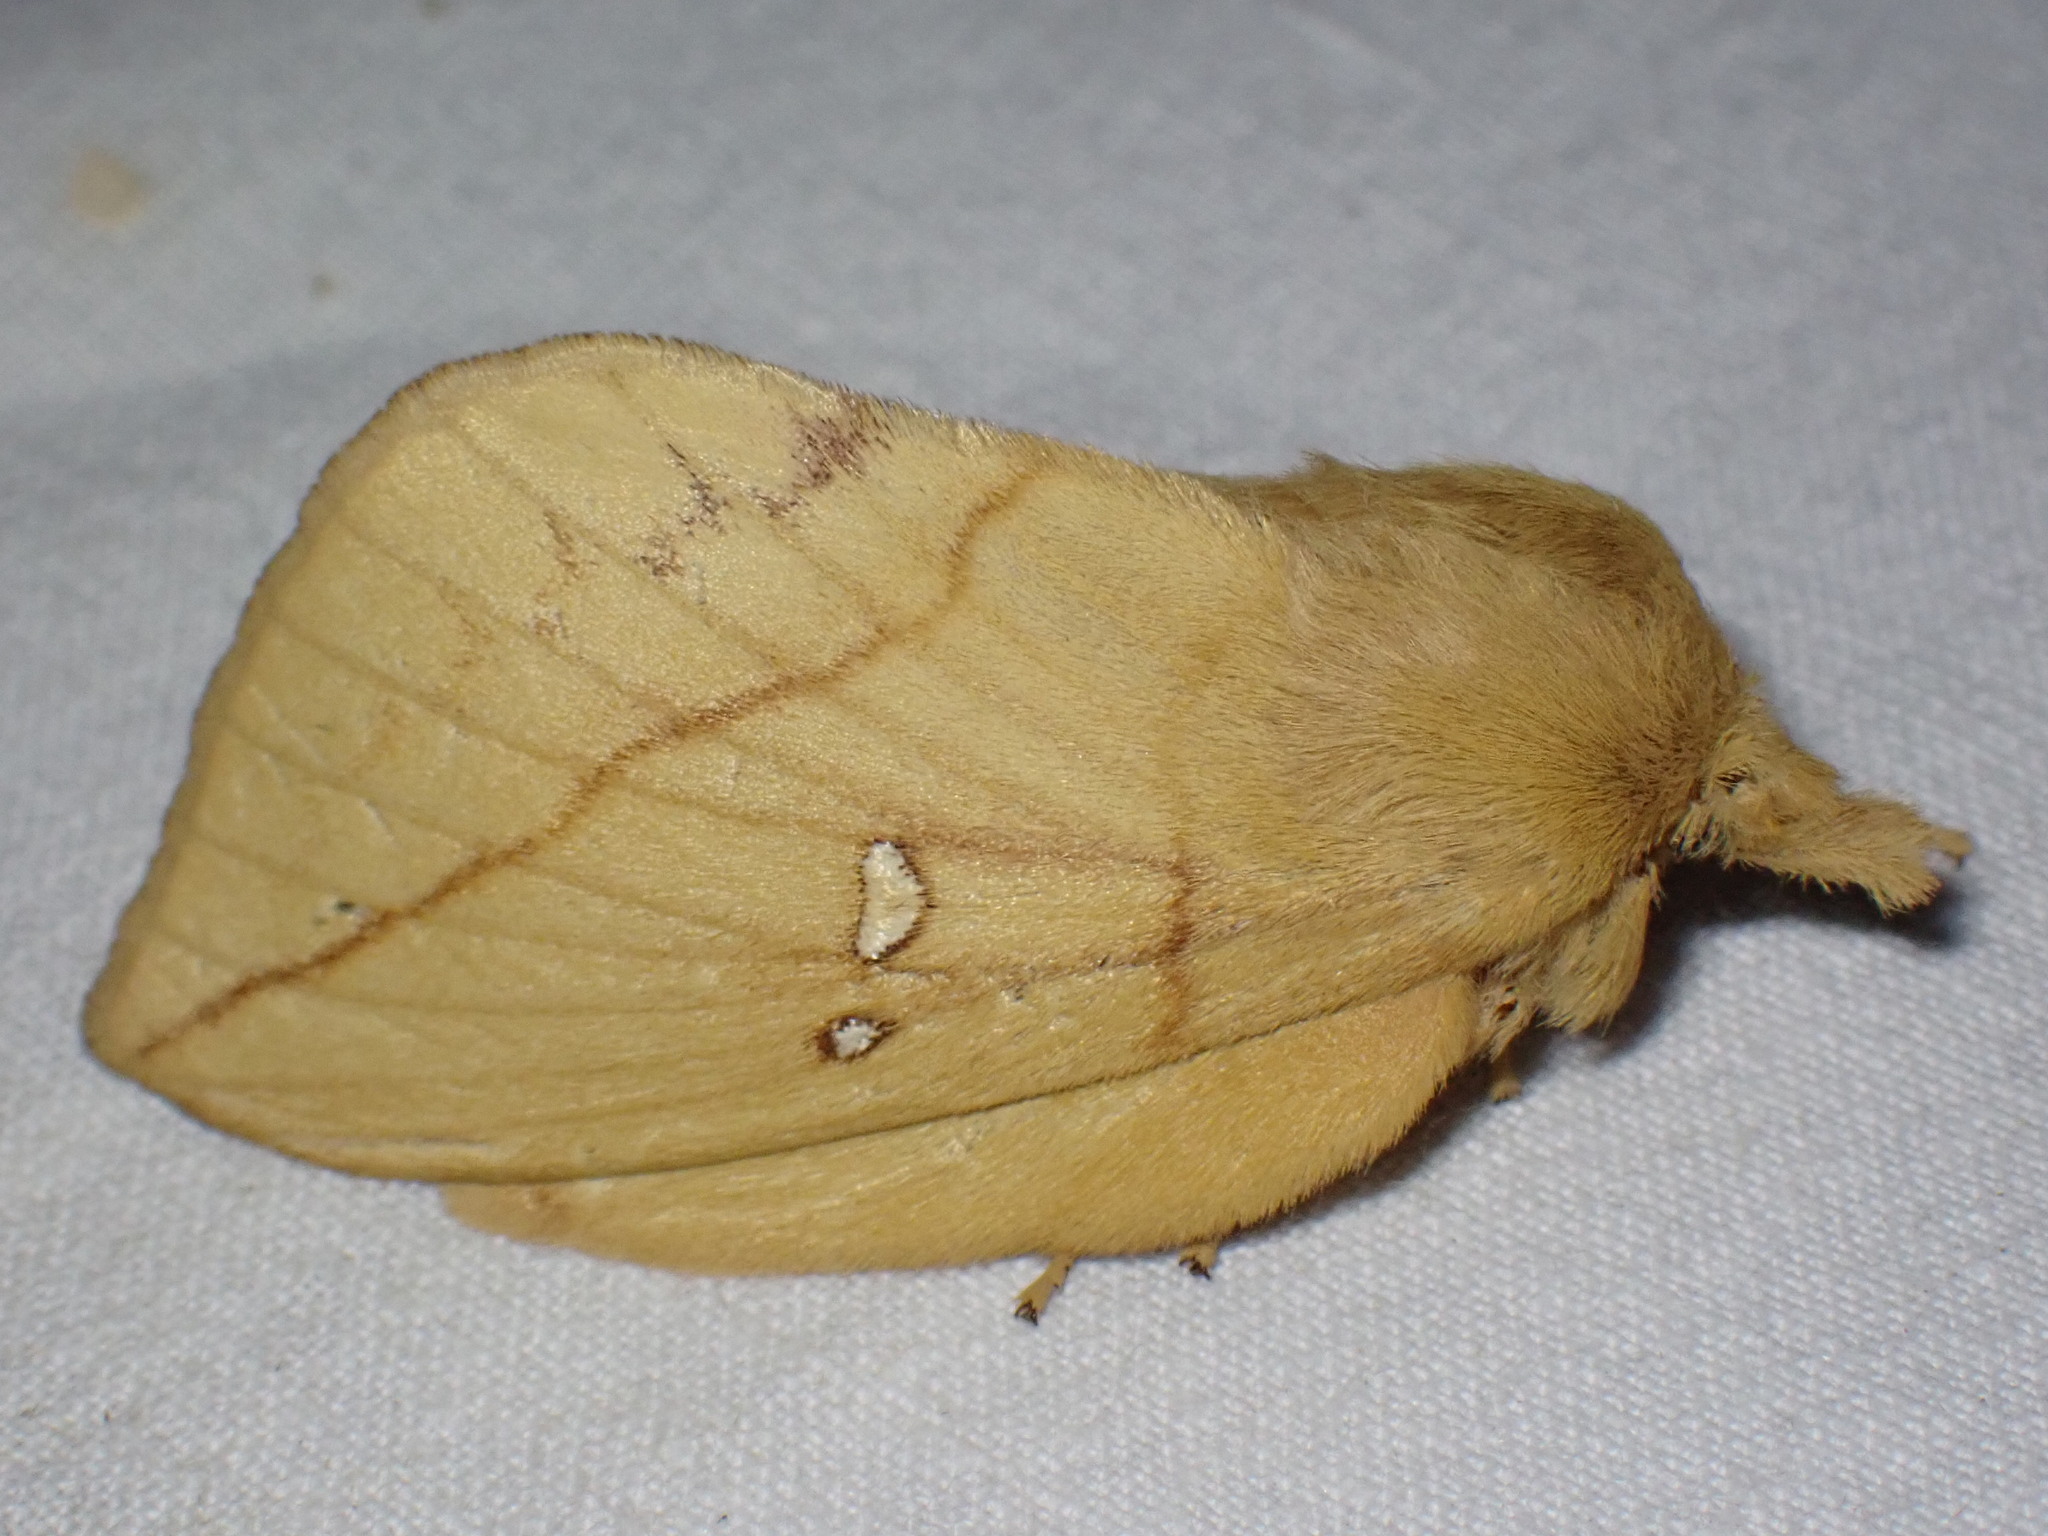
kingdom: Animalia
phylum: Arthropoda
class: Insecta
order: Lepidoptera
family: Lasiocampidae
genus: Euthrix
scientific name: Euthrix potatoria
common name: Drinker
